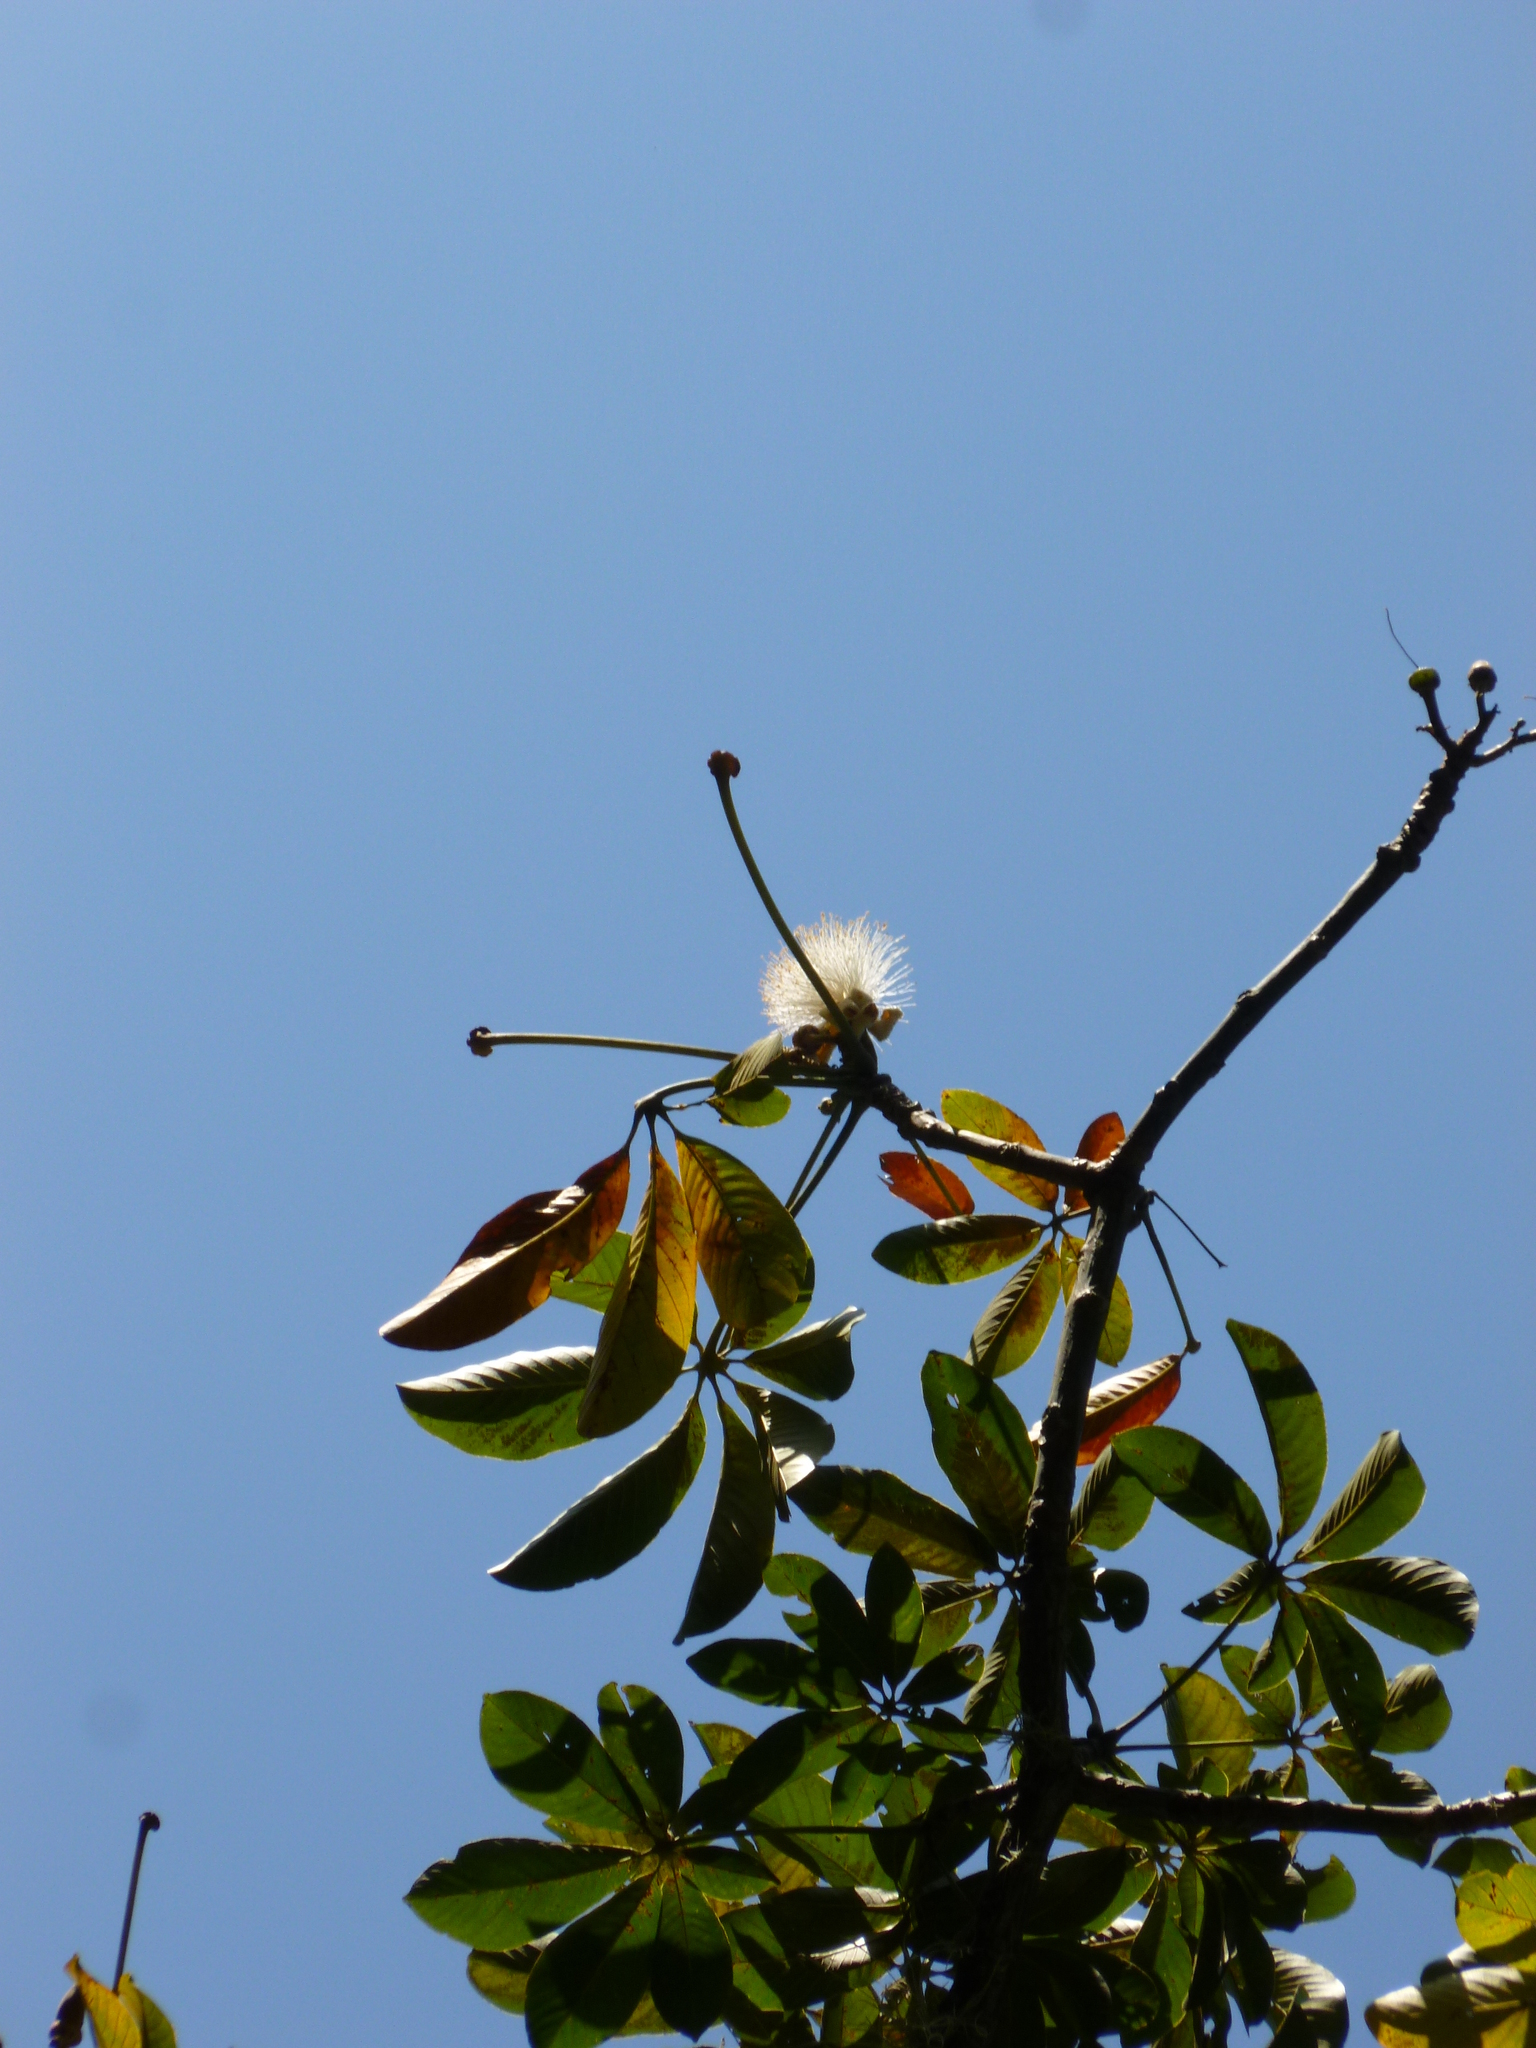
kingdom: Plantae
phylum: Tracheophyta
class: Magnoliopsida
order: Malvales
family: Malvaceae
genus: Pseudobombax
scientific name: Pseudobombax septenatum
